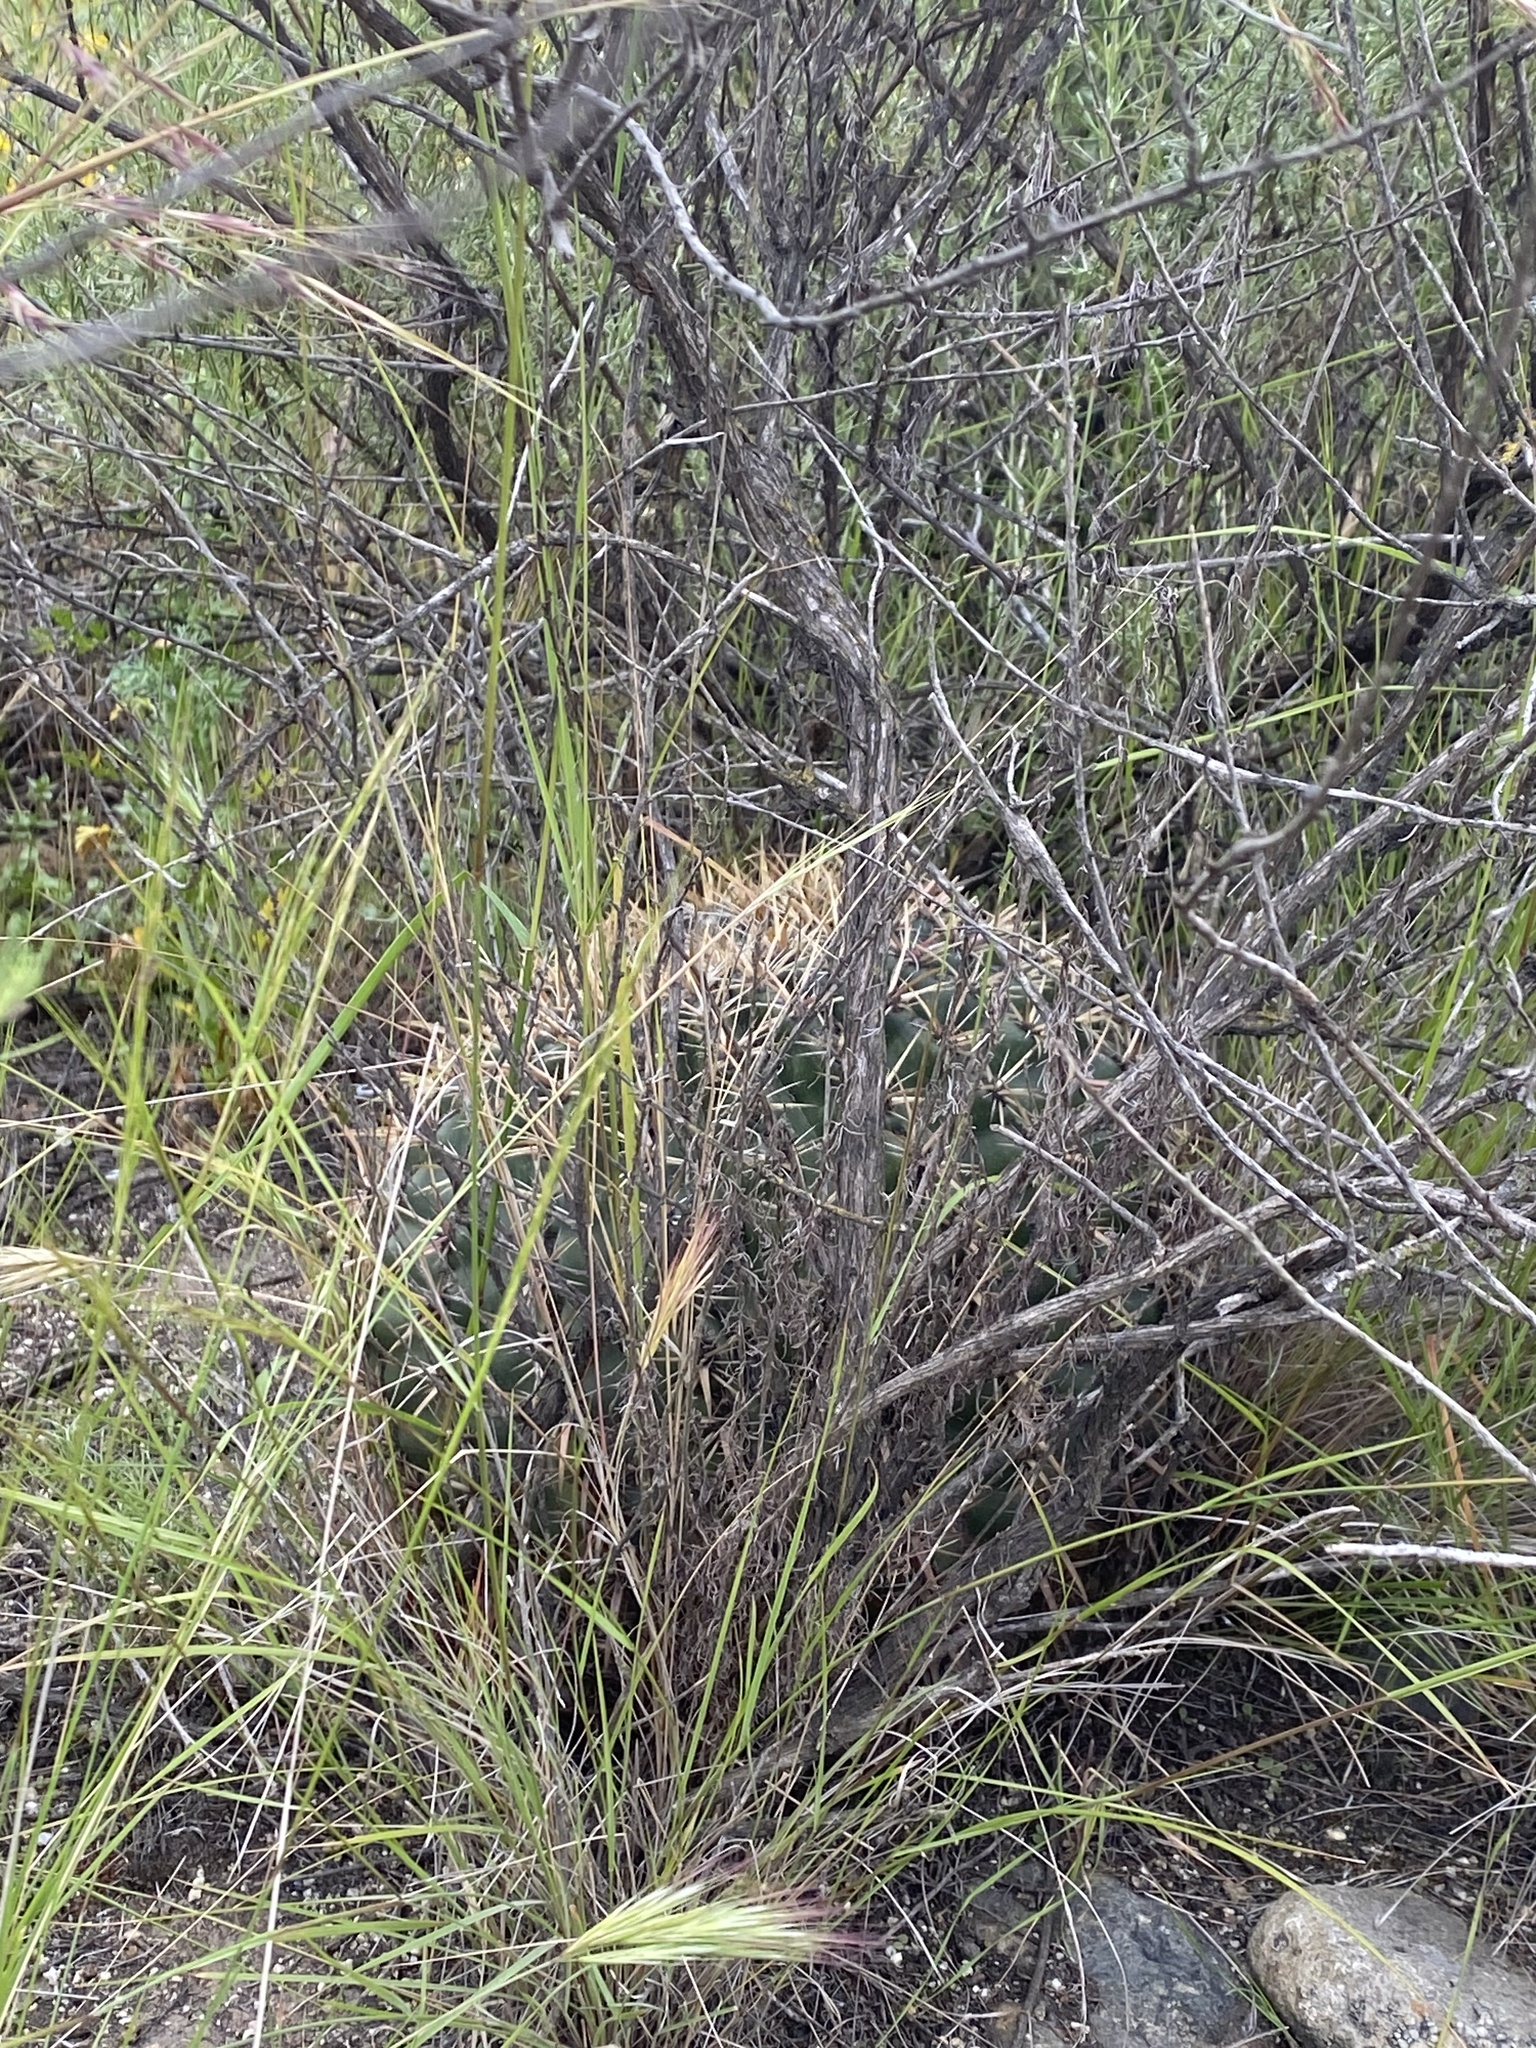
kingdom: Plantae
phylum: Tracheophyta
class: Magnoliopsida
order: Caryophyllales
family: Cactaceae
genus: Ferocactus
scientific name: Ferocactus viridescens
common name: San diego barrel cactus
